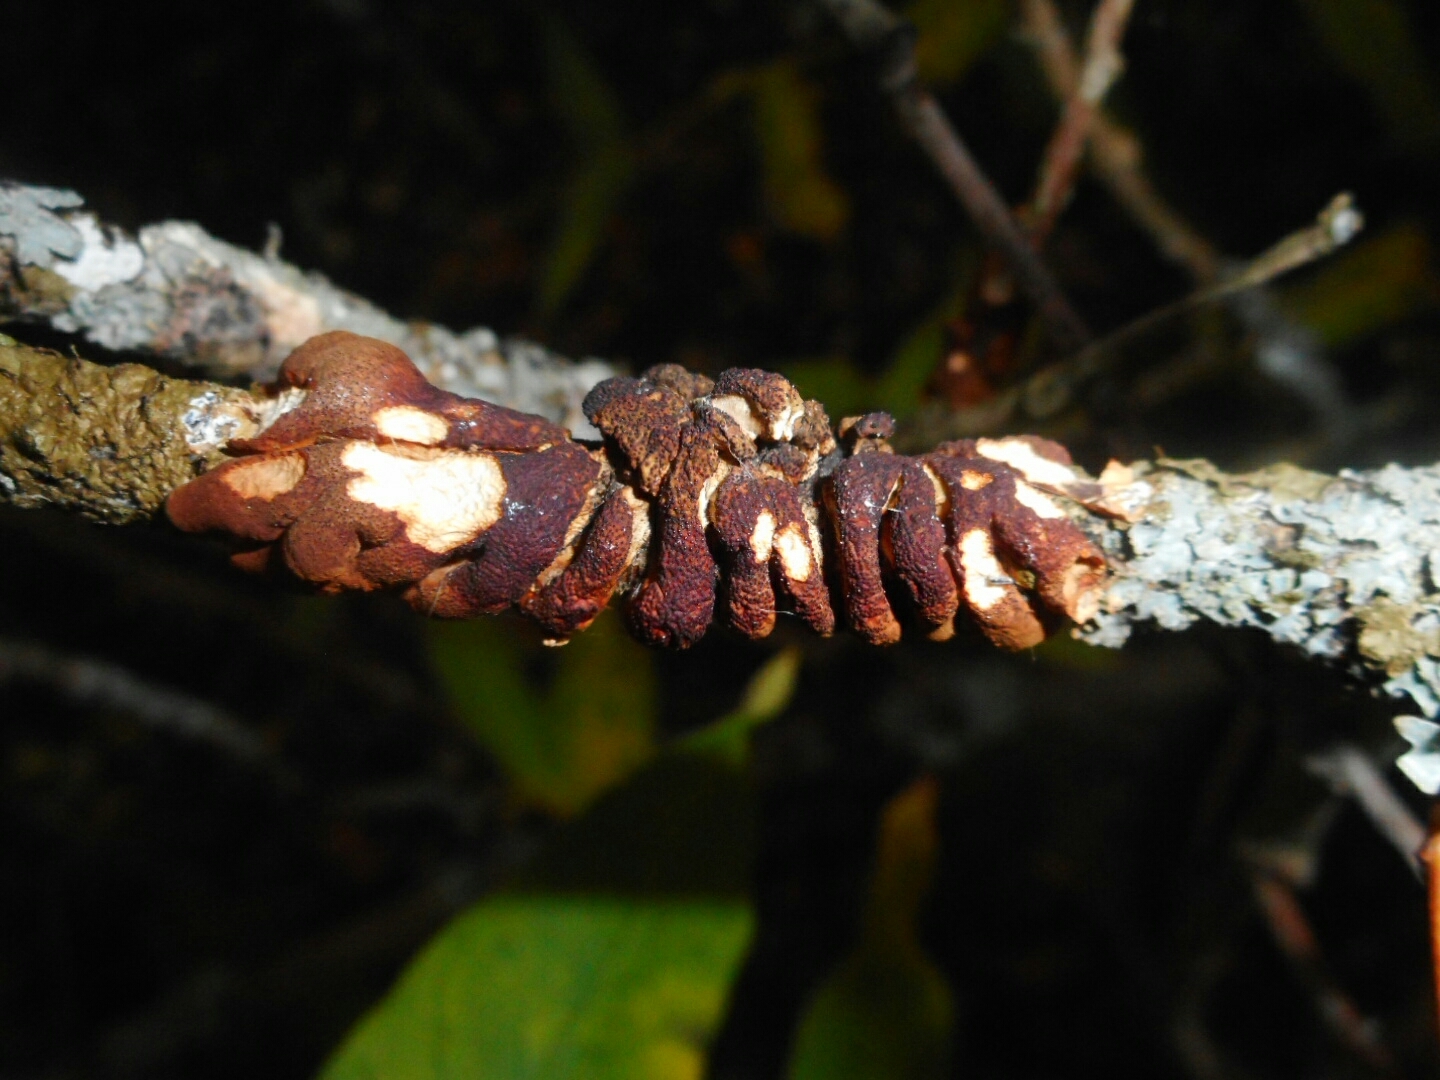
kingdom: Fungi
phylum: Ascomycota
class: Sordariomycetes
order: Hypocreales
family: Hypocreaceae
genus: Hypocreopsis
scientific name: Hypocreopsis lichenoides
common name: Willow gloves
